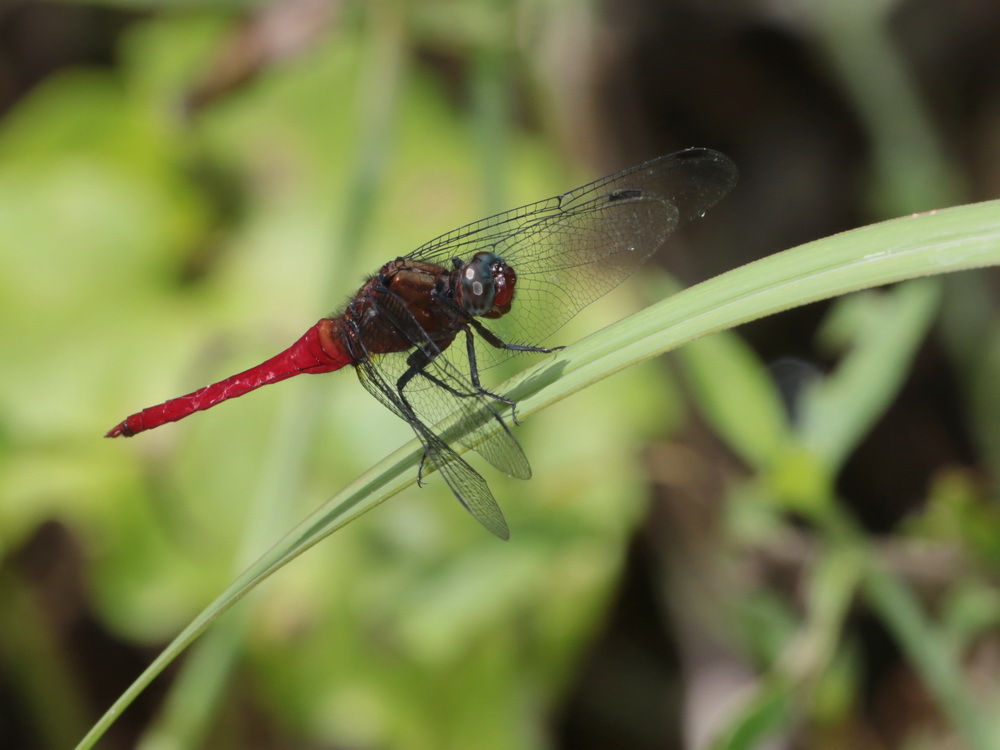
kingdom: Animalia
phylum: Arthropoda
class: Insecta
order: Odonata
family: Libellulidae
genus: Orthetrum
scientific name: Orthetrum chrysis
